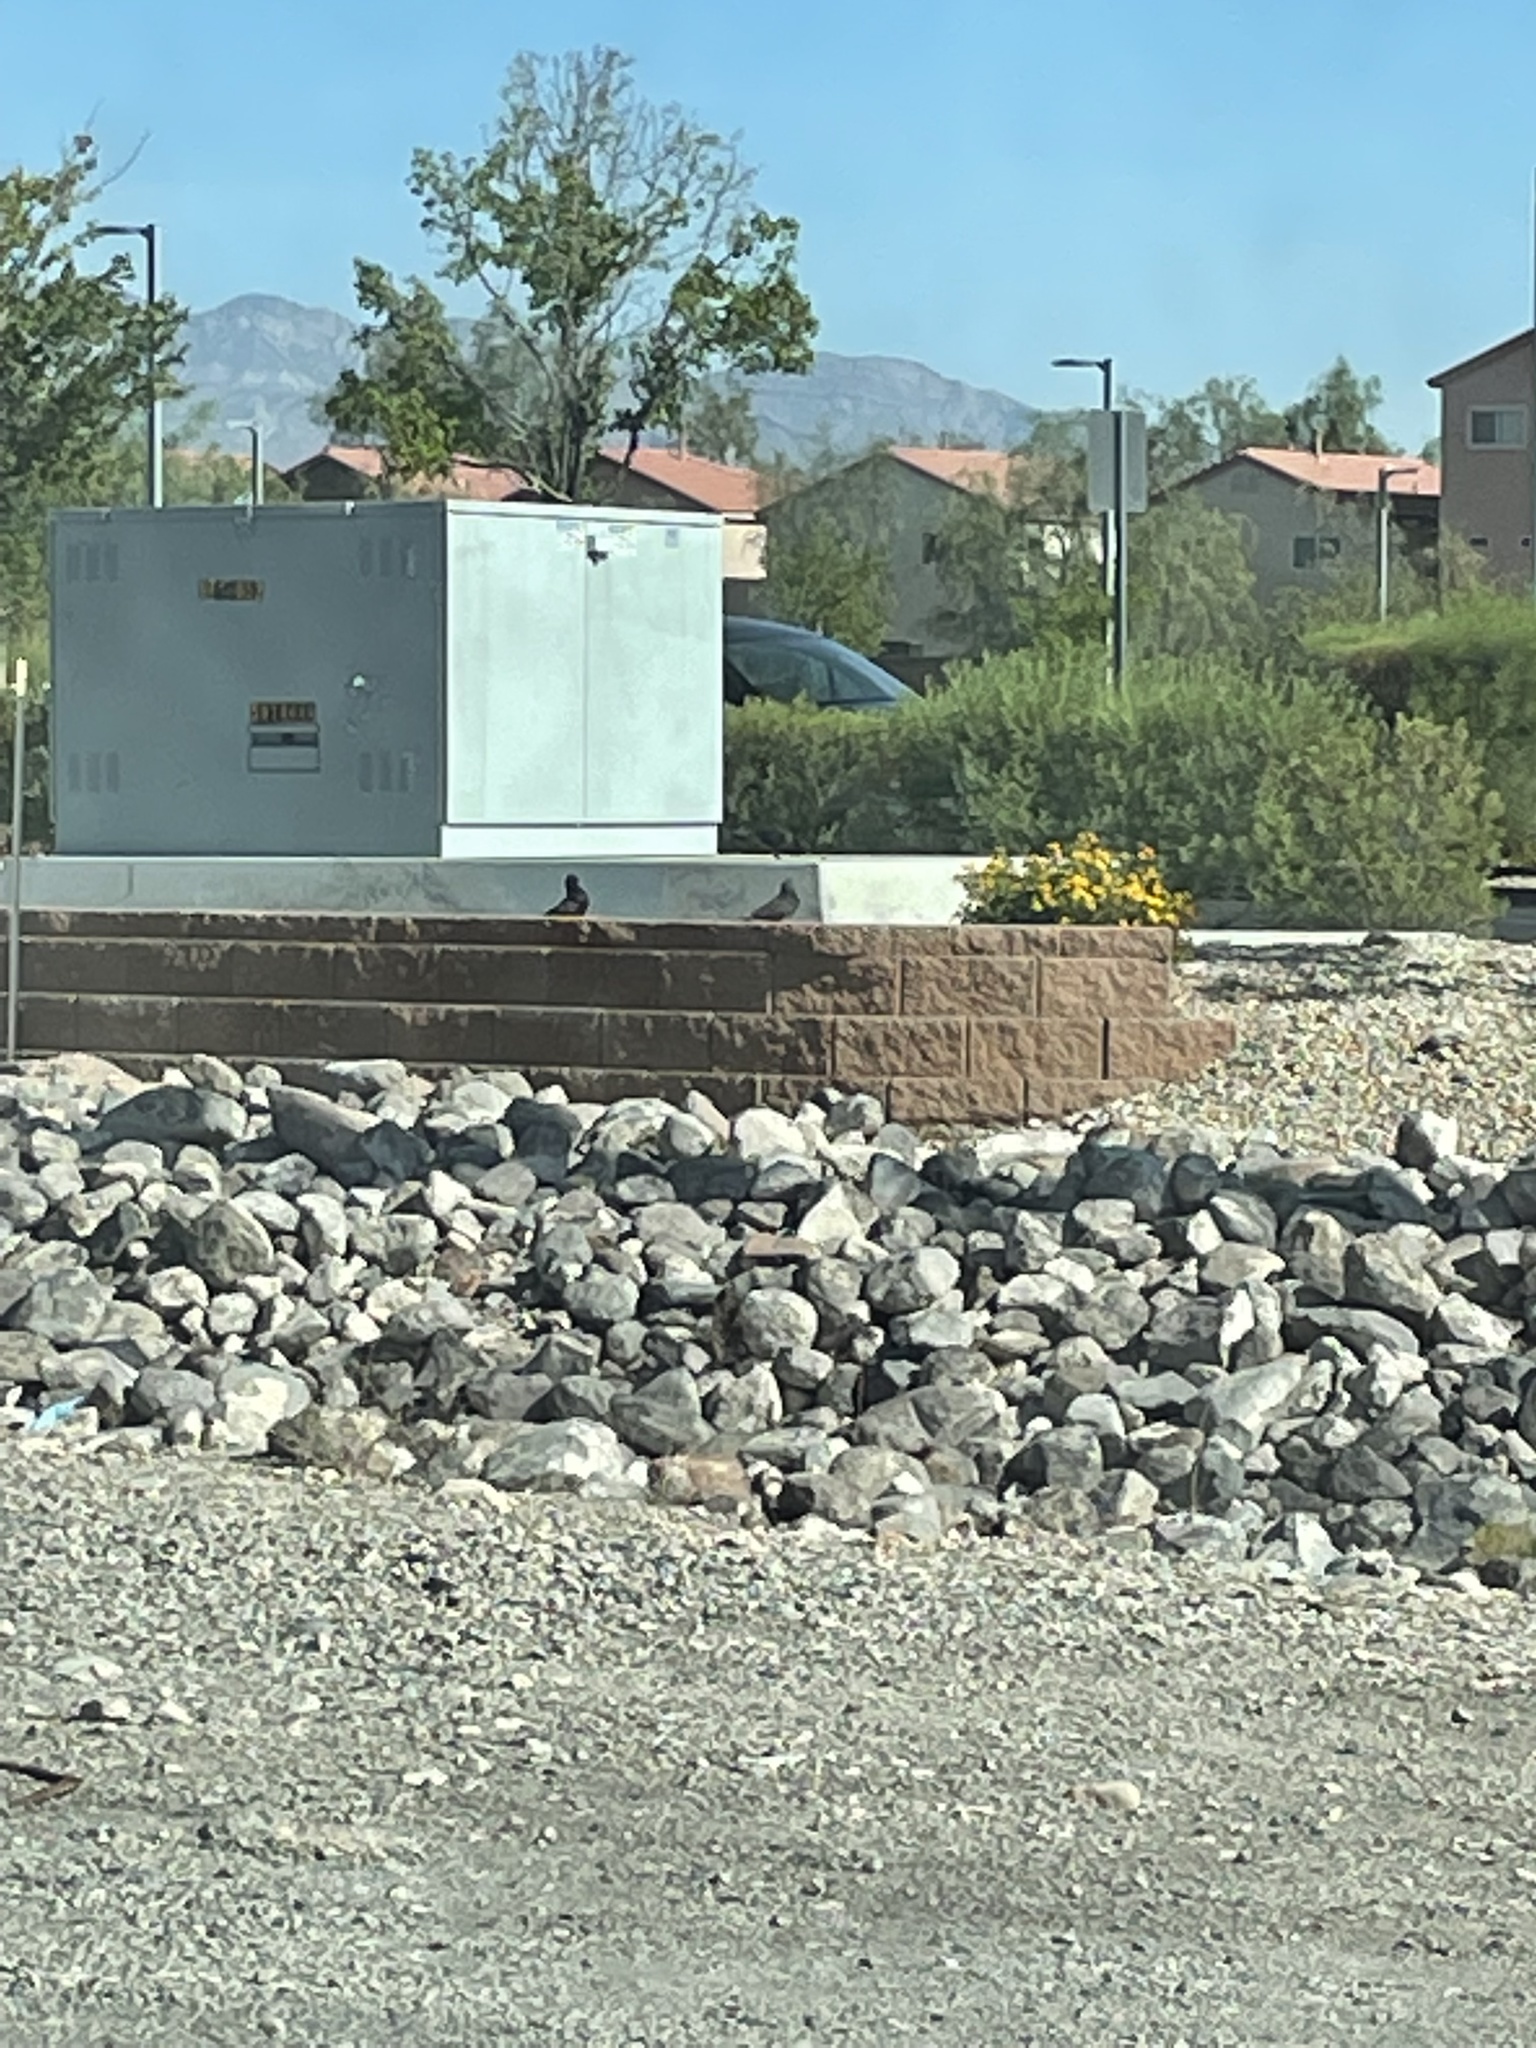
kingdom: Animalia
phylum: Chordata
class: Aves
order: Columbiformes
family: Columbidae
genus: Columba
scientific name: Columba livia
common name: Rock pigeon
